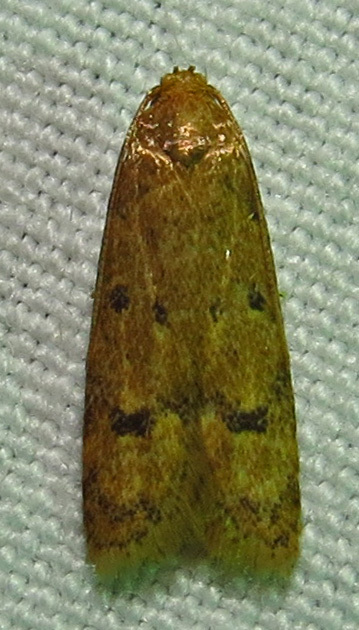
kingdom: Animalia
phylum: Arthropoda
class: Insecta
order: Lepidoptera
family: Autostichidae
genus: Gerdana
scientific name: Gerdana caritella
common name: Gerdana moth
